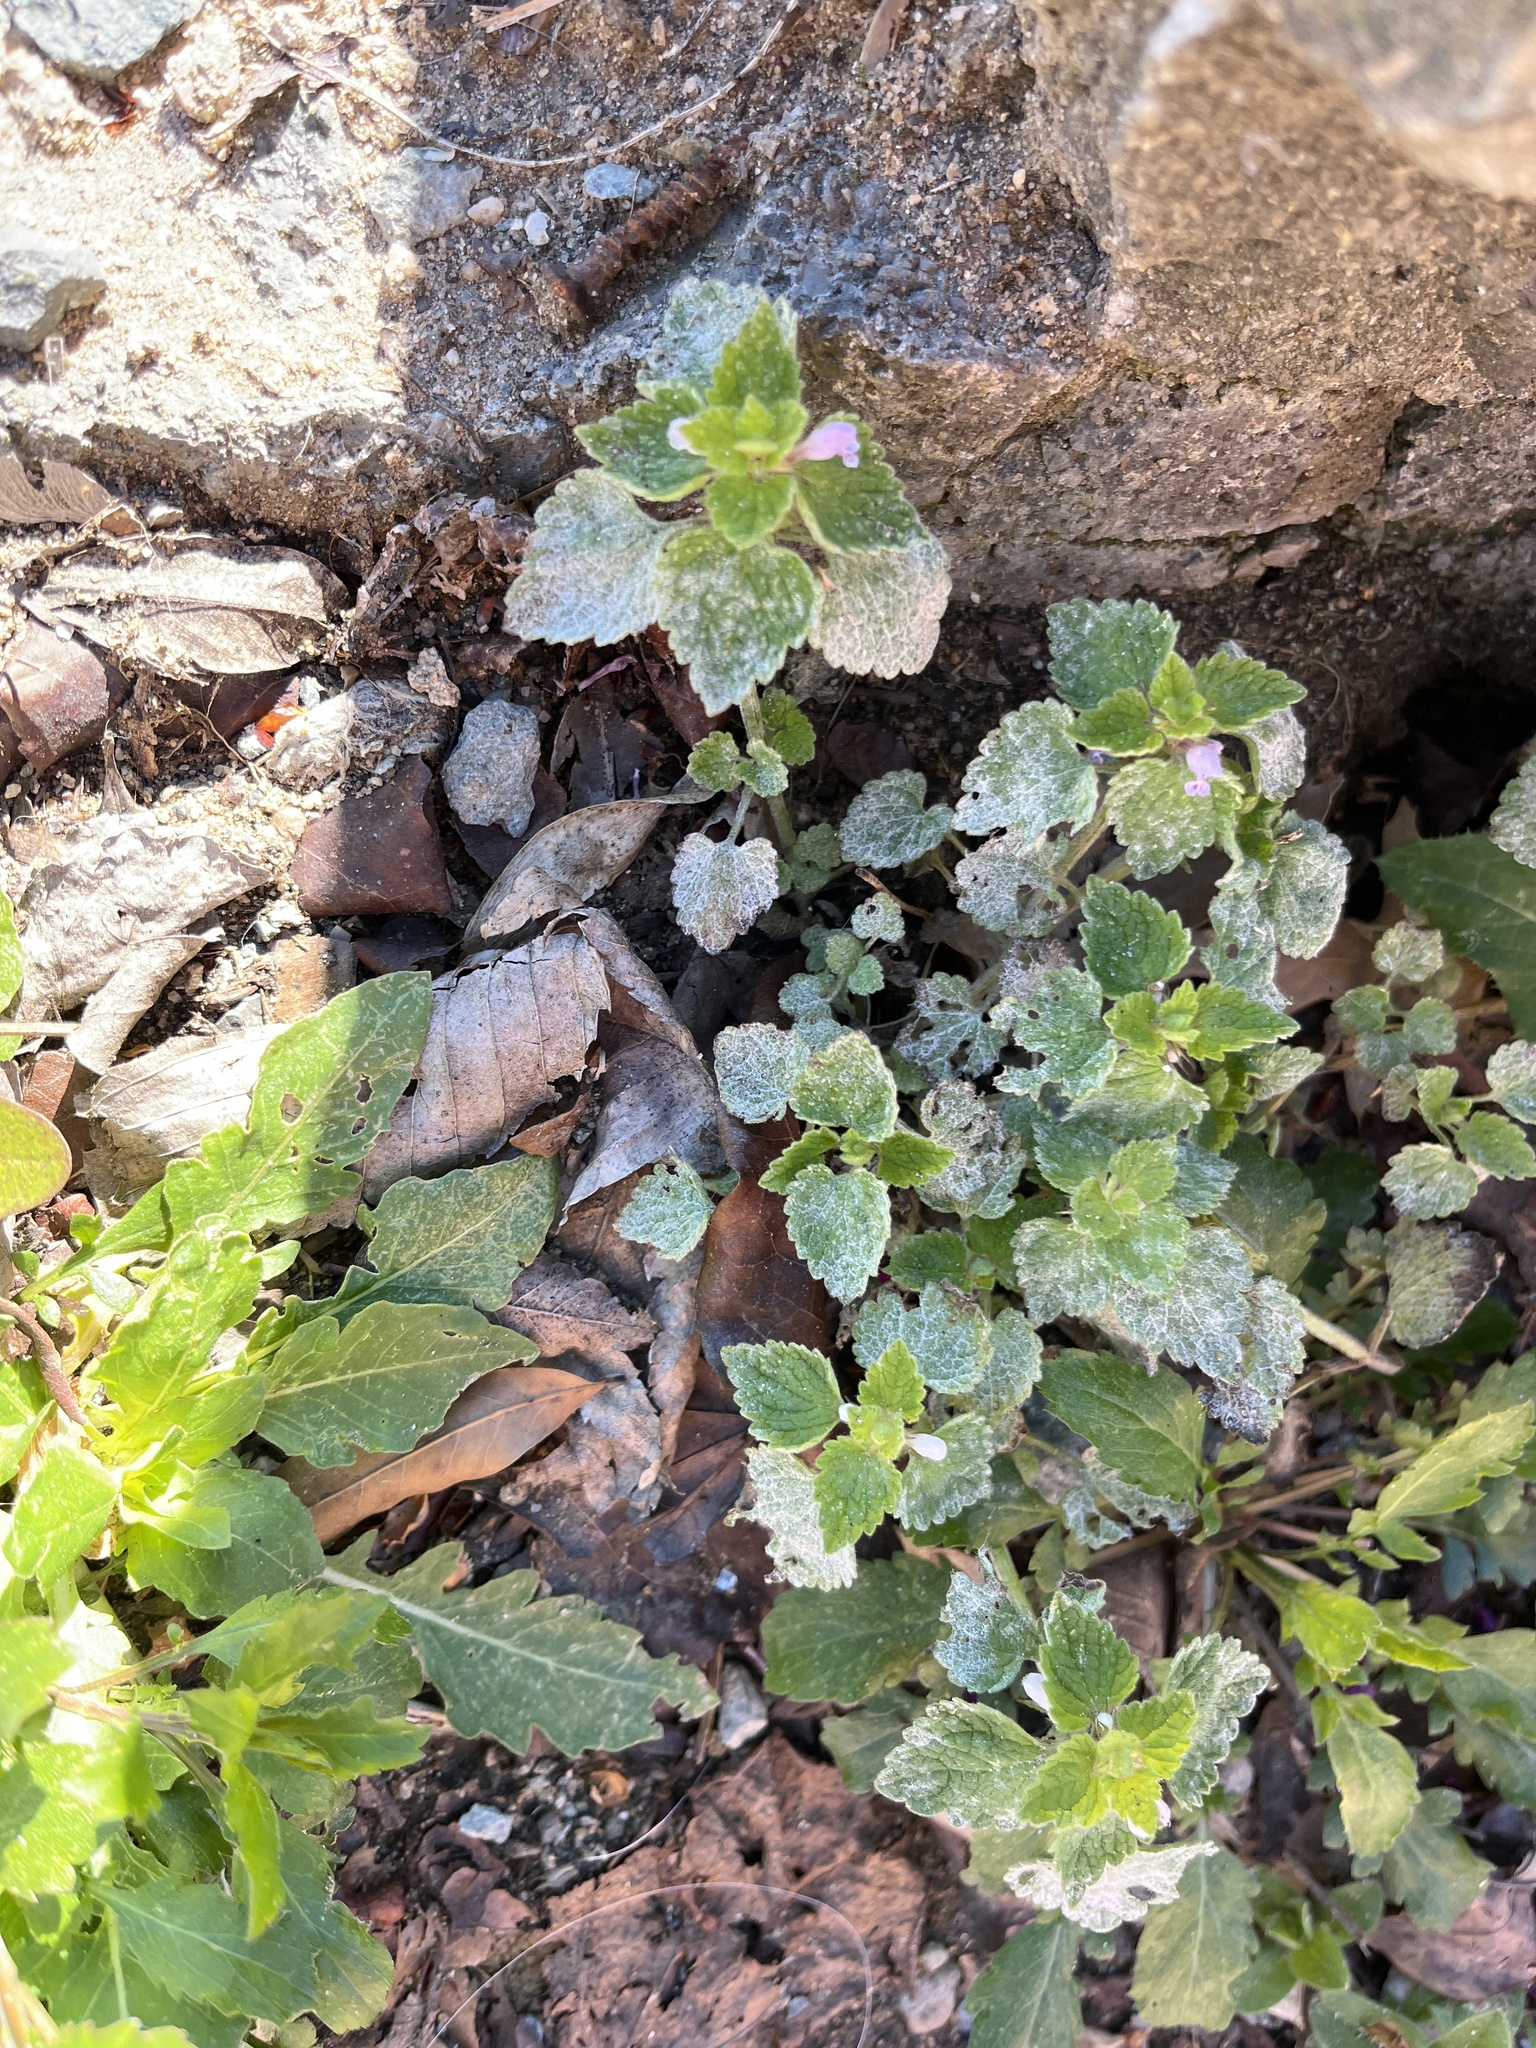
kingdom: Plantae
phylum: Tracheophyta
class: Magnoliopsida
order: Lamiales
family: Lamiaceae
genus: Lamium
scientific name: Lamium purpureum
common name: Red dead-nettle
